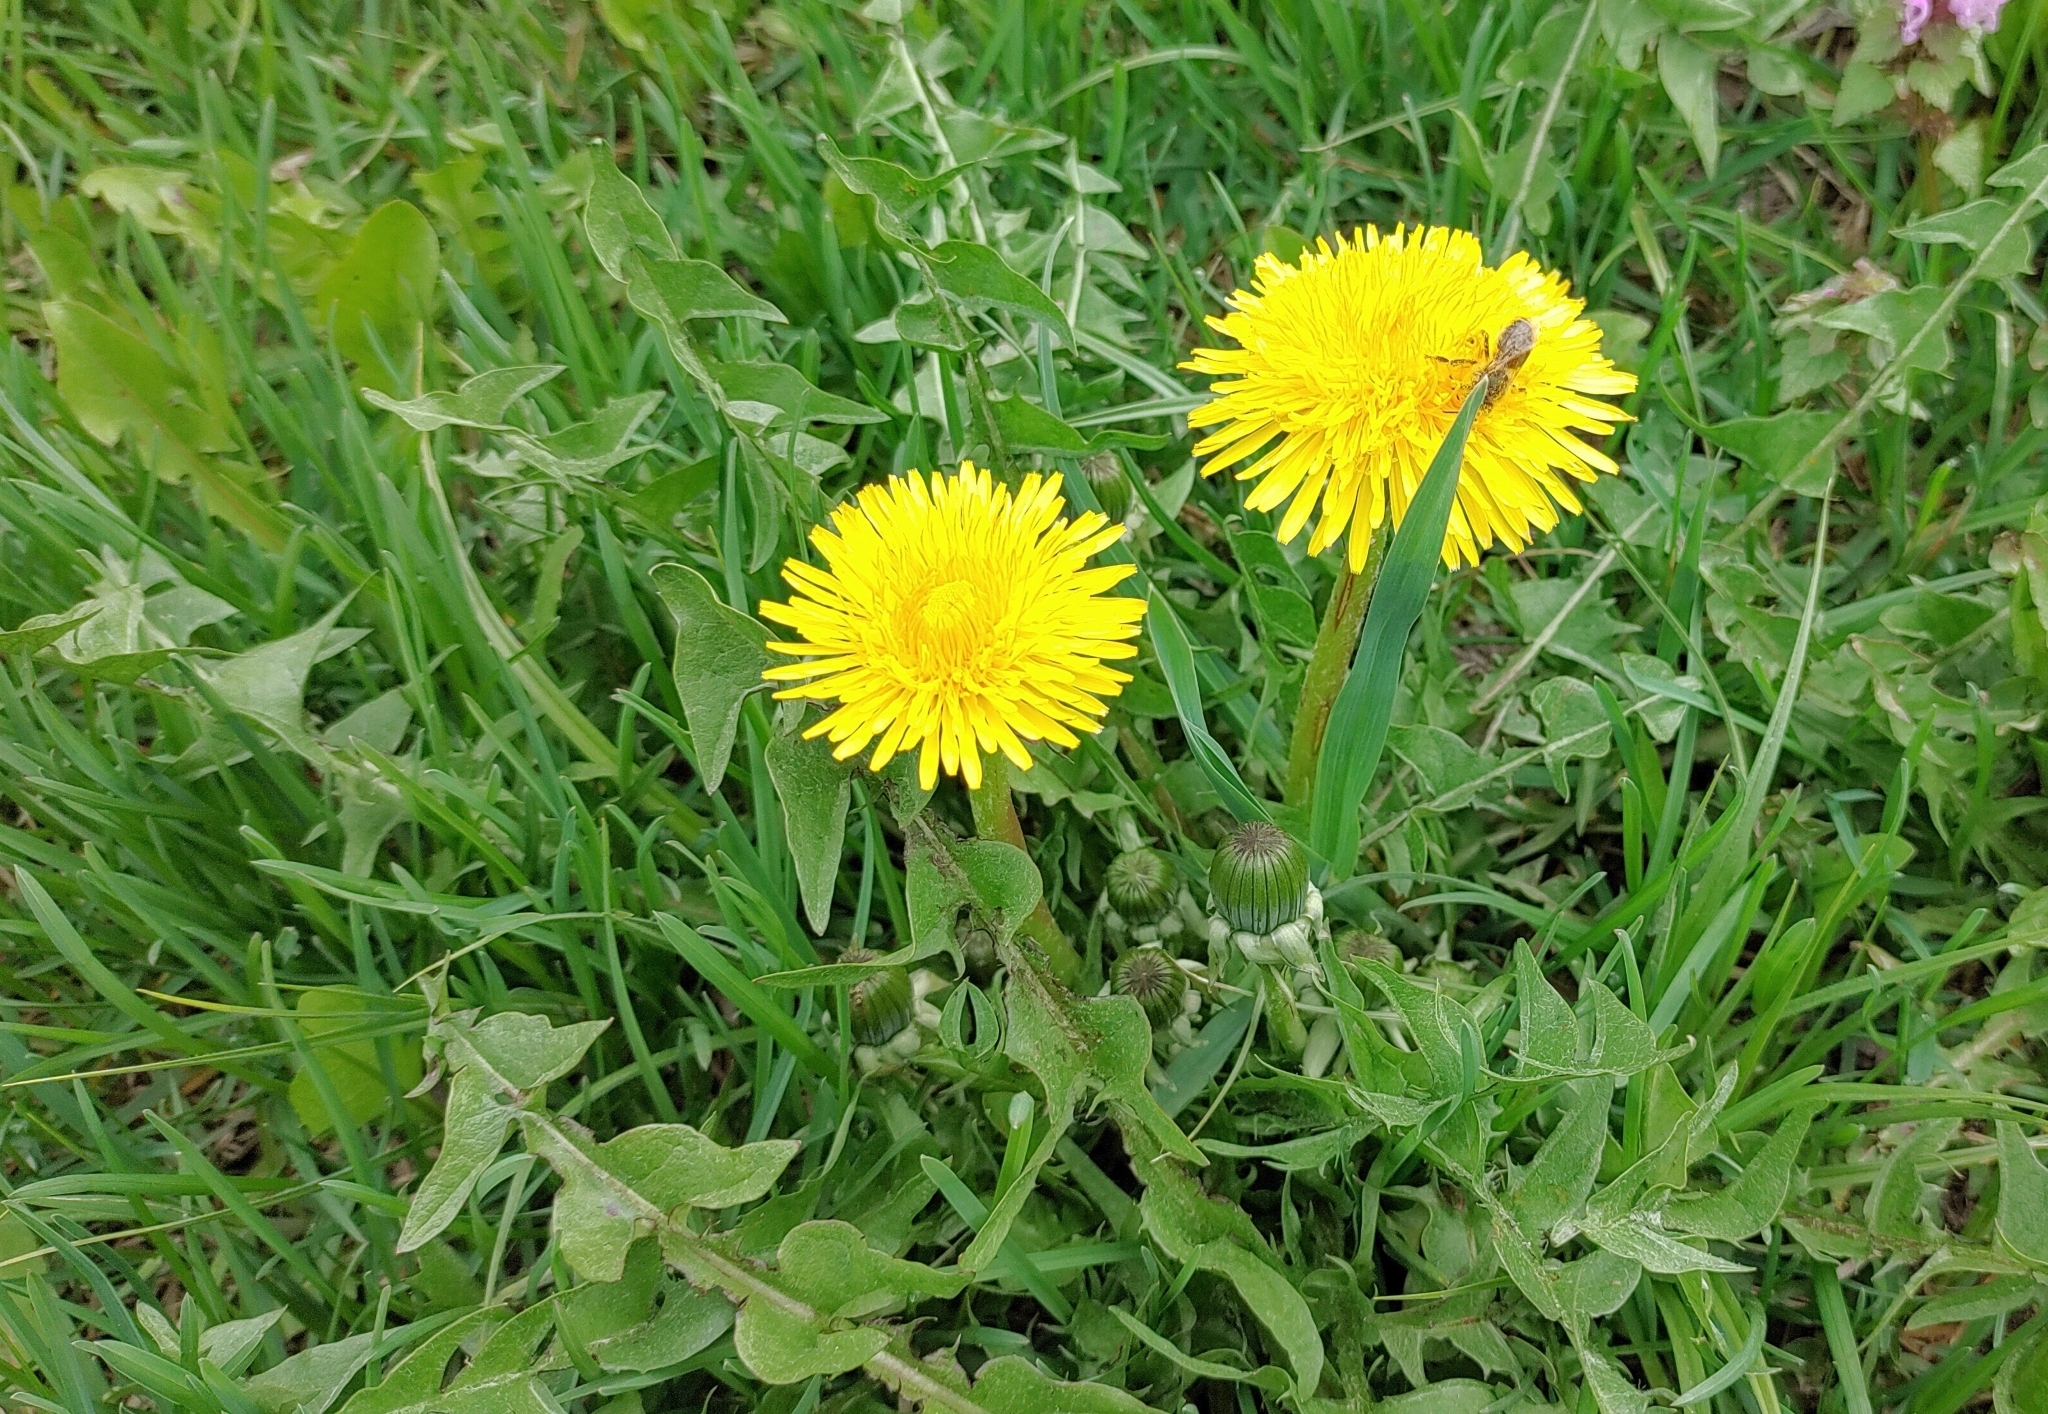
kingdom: Plantae
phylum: Tracheophyta
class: Magnoliopsida
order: Asterales
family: Asteraceae
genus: Taraxacum
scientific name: Taraxacum officinale
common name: Common dandelion
